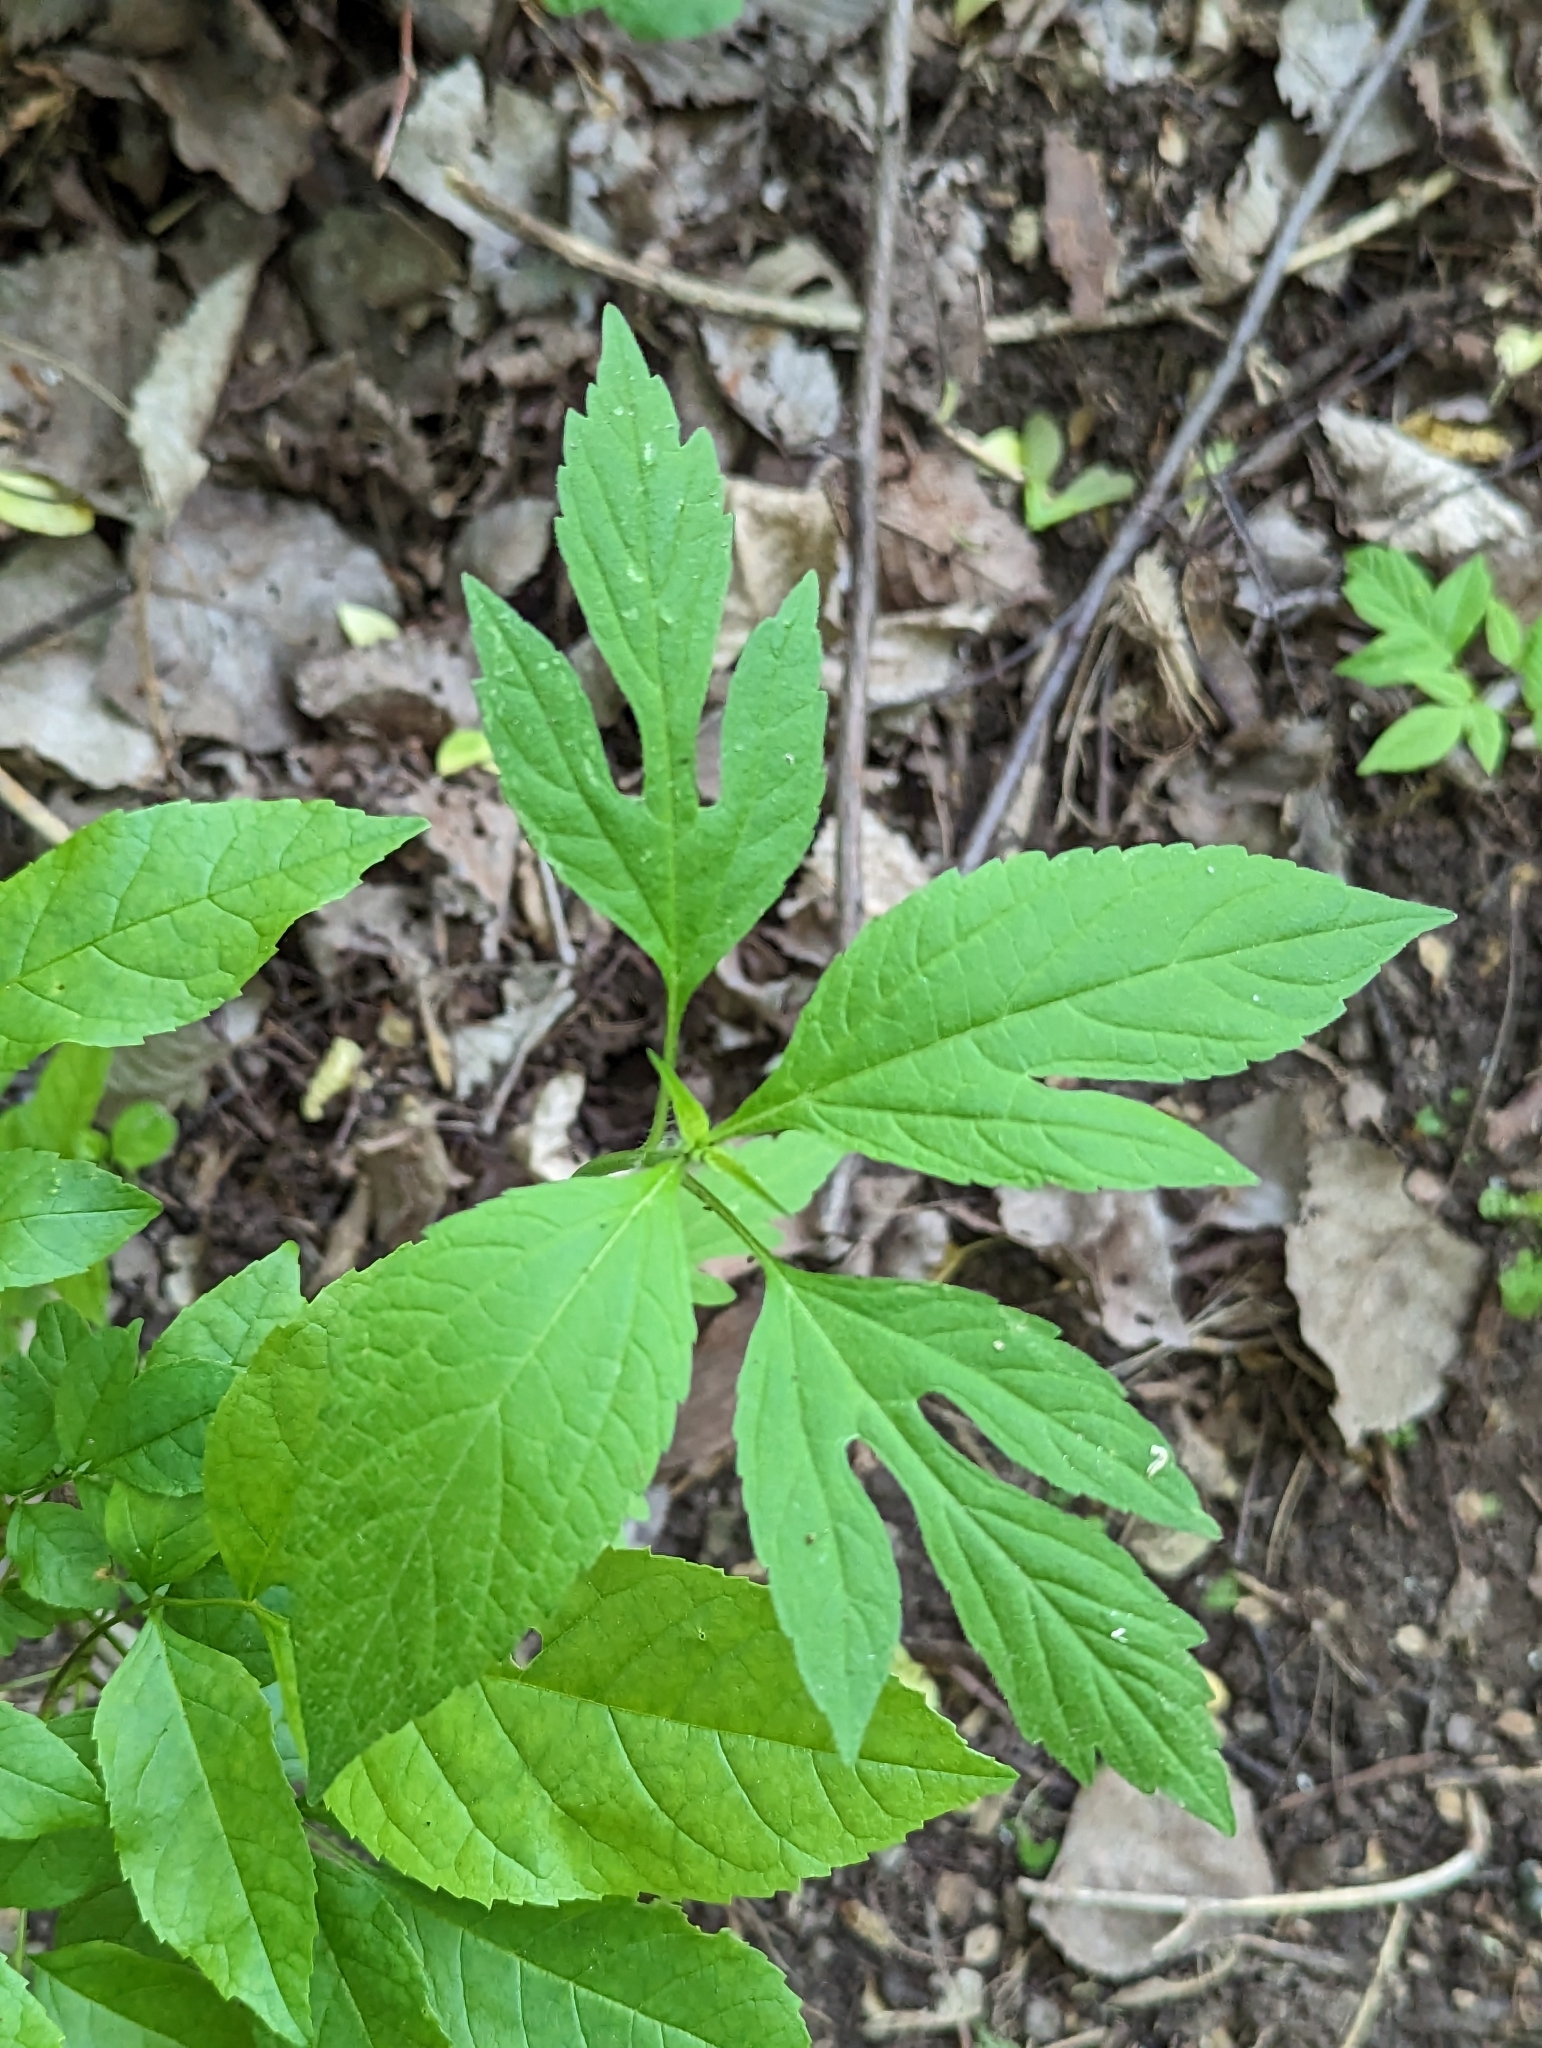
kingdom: Plantae
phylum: Tracheophyta
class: Magnoliopsida
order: Asterales
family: Asteraceae
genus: Ambrosia
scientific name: Ambrosia trifida
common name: Giant ragweed
